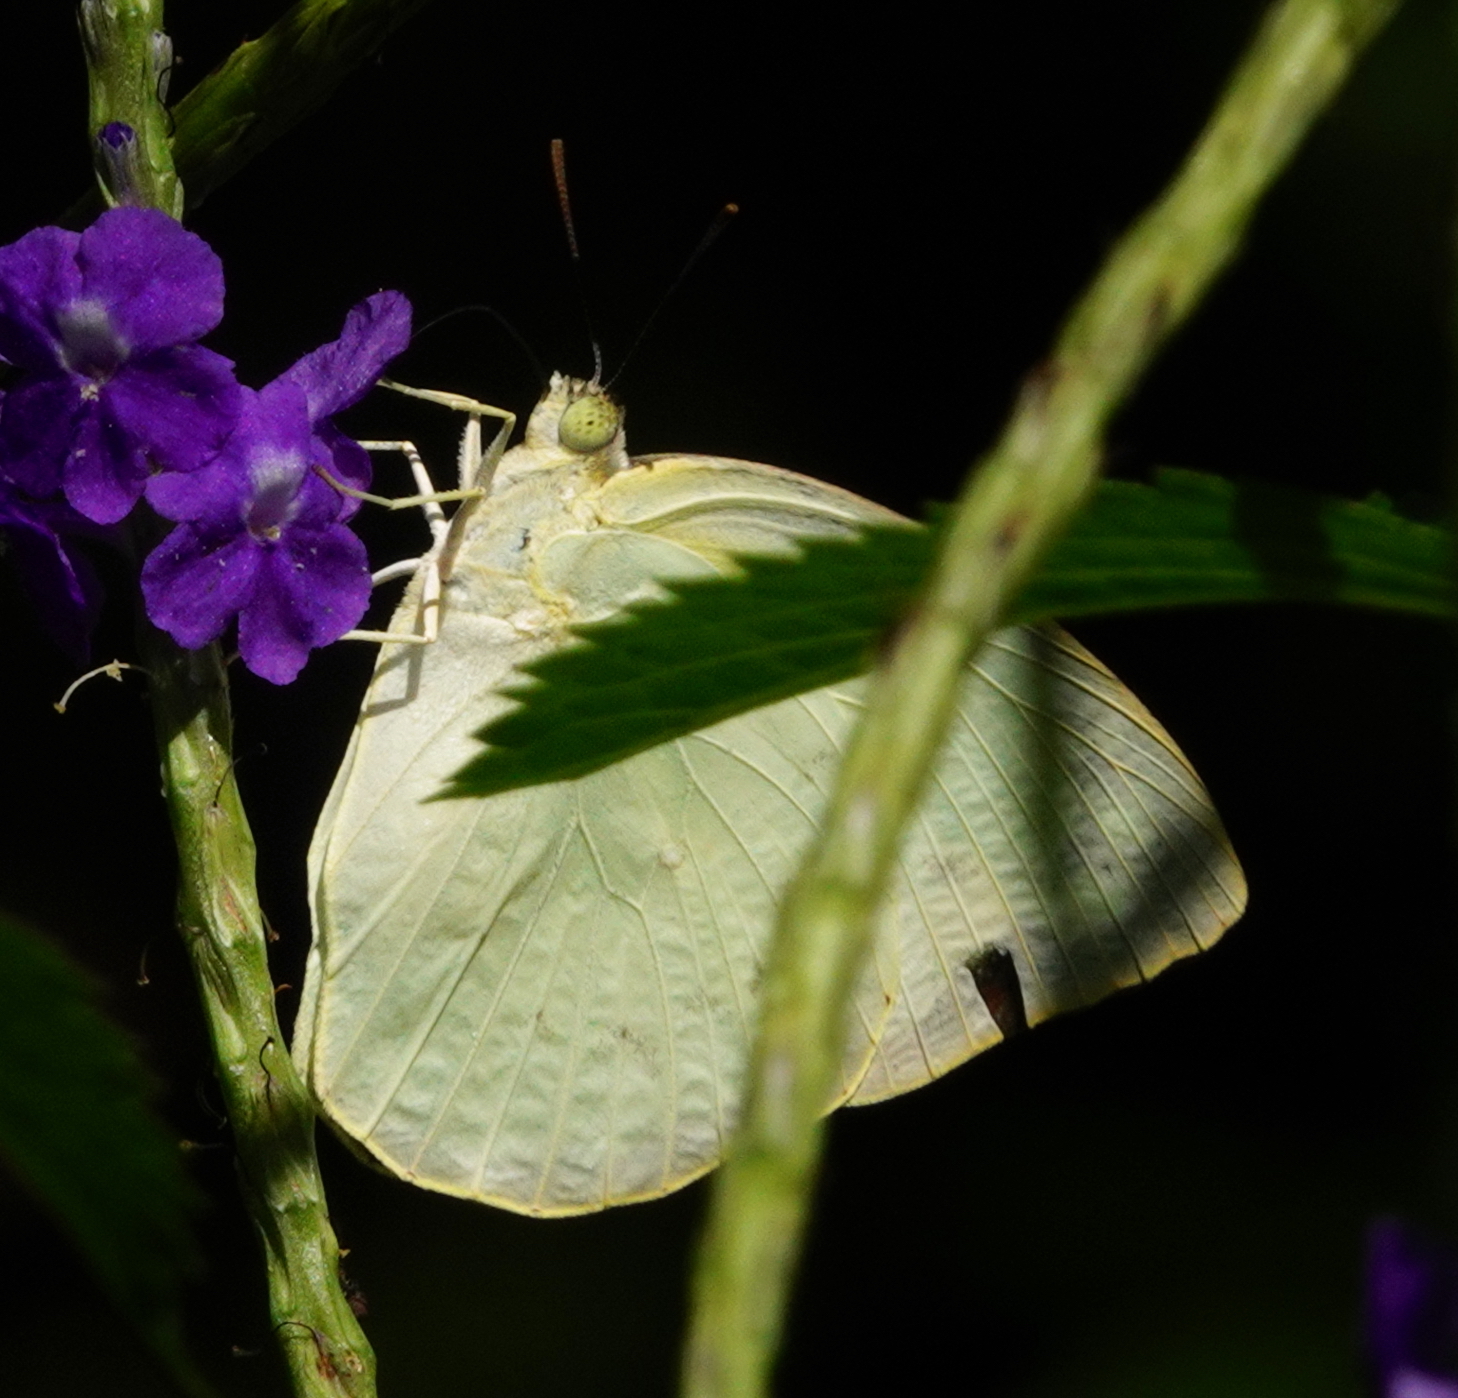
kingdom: Animalia
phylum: Arthropoda
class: Insecta
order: Lepidoptera
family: Pieridae
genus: Catopsilia
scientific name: Catopsilia pomona
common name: Common emigrant
